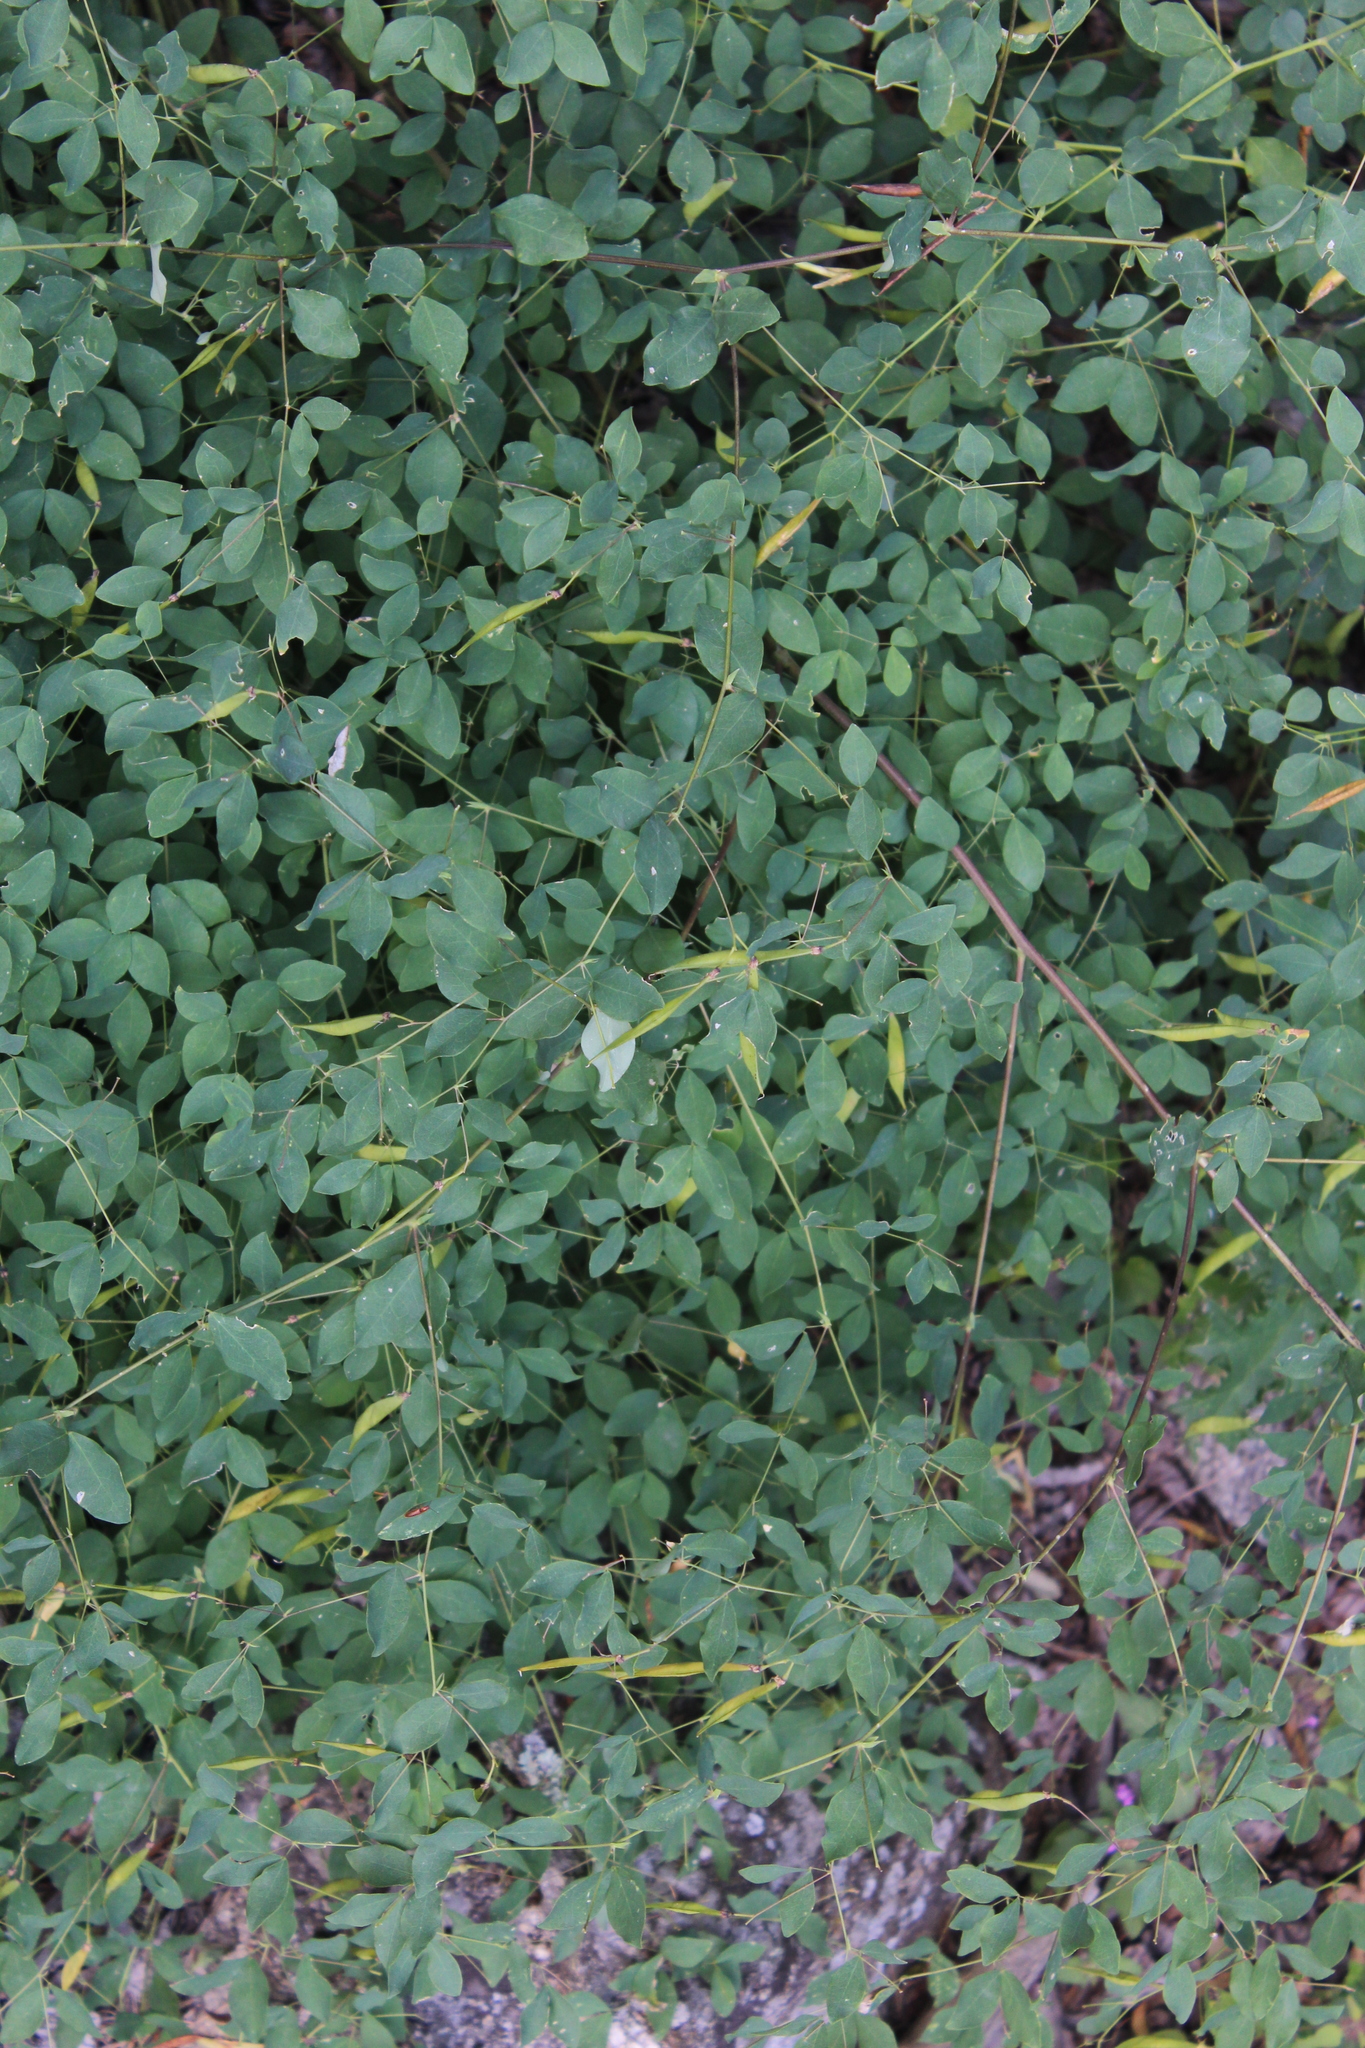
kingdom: Plantae
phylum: Tracheophyta
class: Magnoliopsida
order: Fabales
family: Fabaceae
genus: Lathyrus
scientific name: Lathyrus roseus
